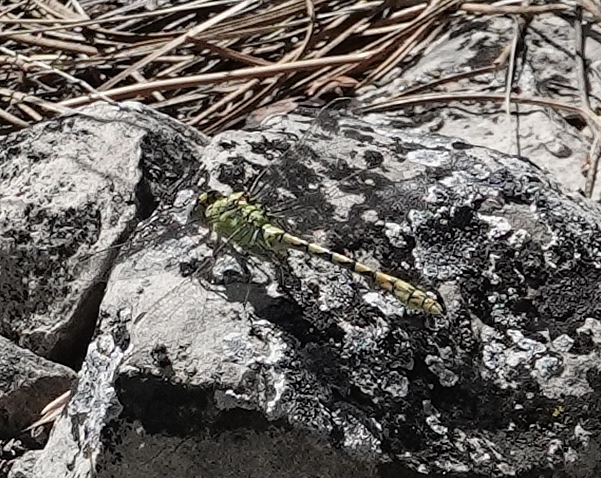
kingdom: Animalia
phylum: Arthropoda
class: Insecta
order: Odonata
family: Gomphidae
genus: Ophiogomphus
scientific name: Ophiogomphus severus
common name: Pale snaketail
